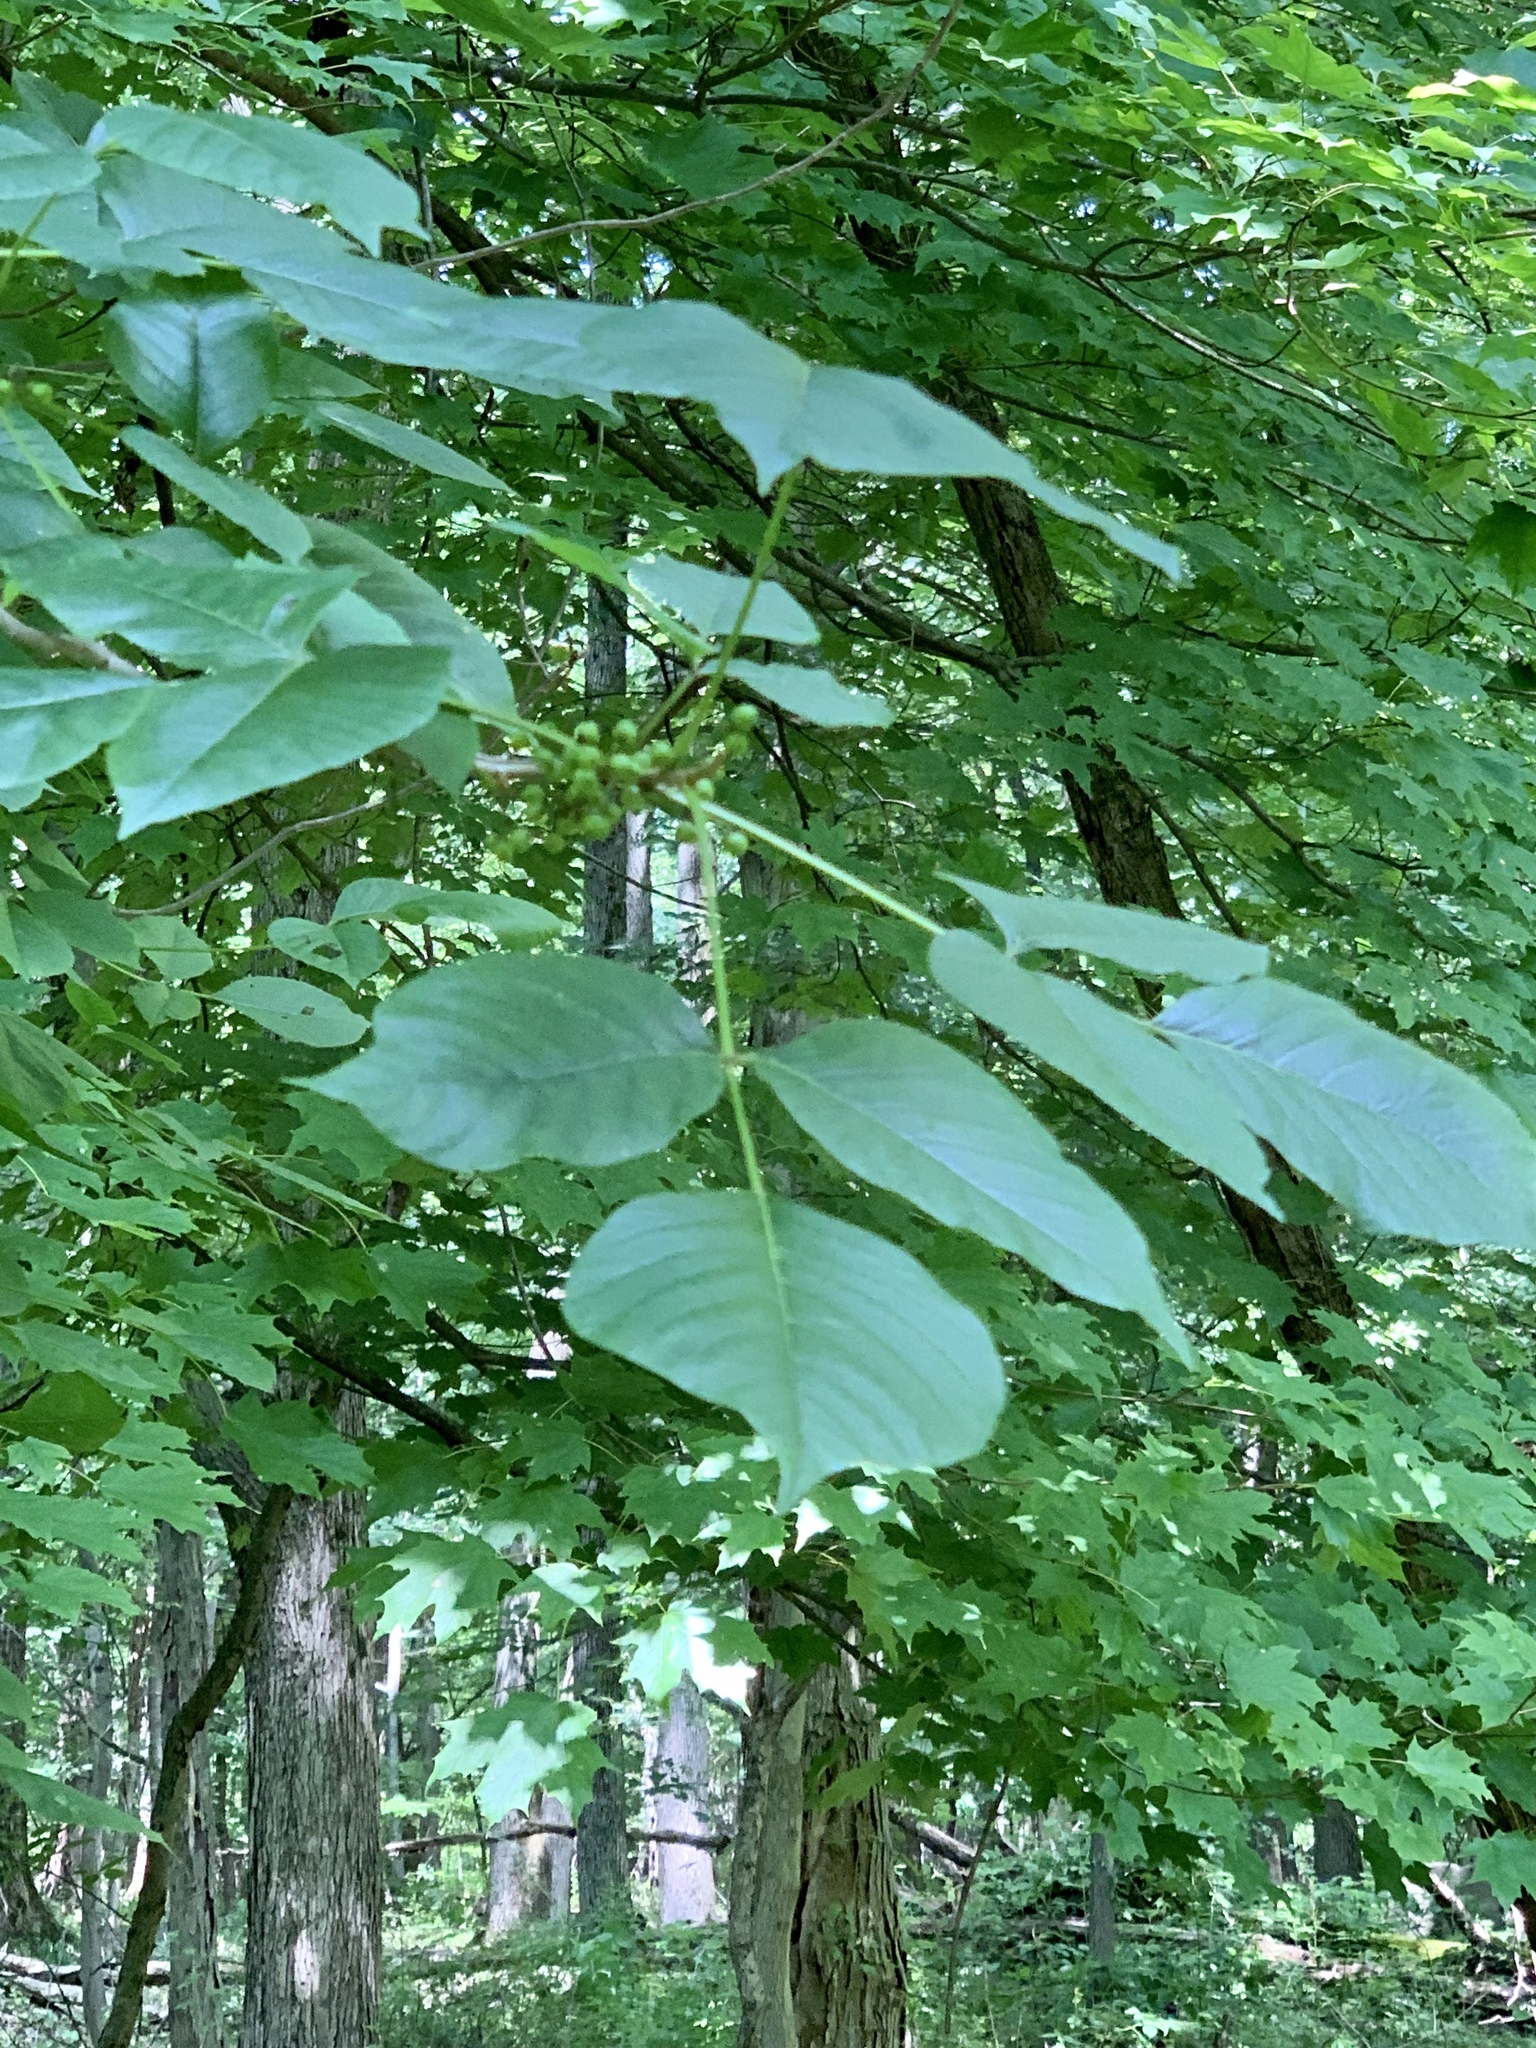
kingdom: Plantae
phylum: Tracheophyta
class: Magnoliopsida
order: Sapindales
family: Anacardiaceae
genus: Toxicodendron
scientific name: Toxicodendron radicans
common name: Poison ivy
